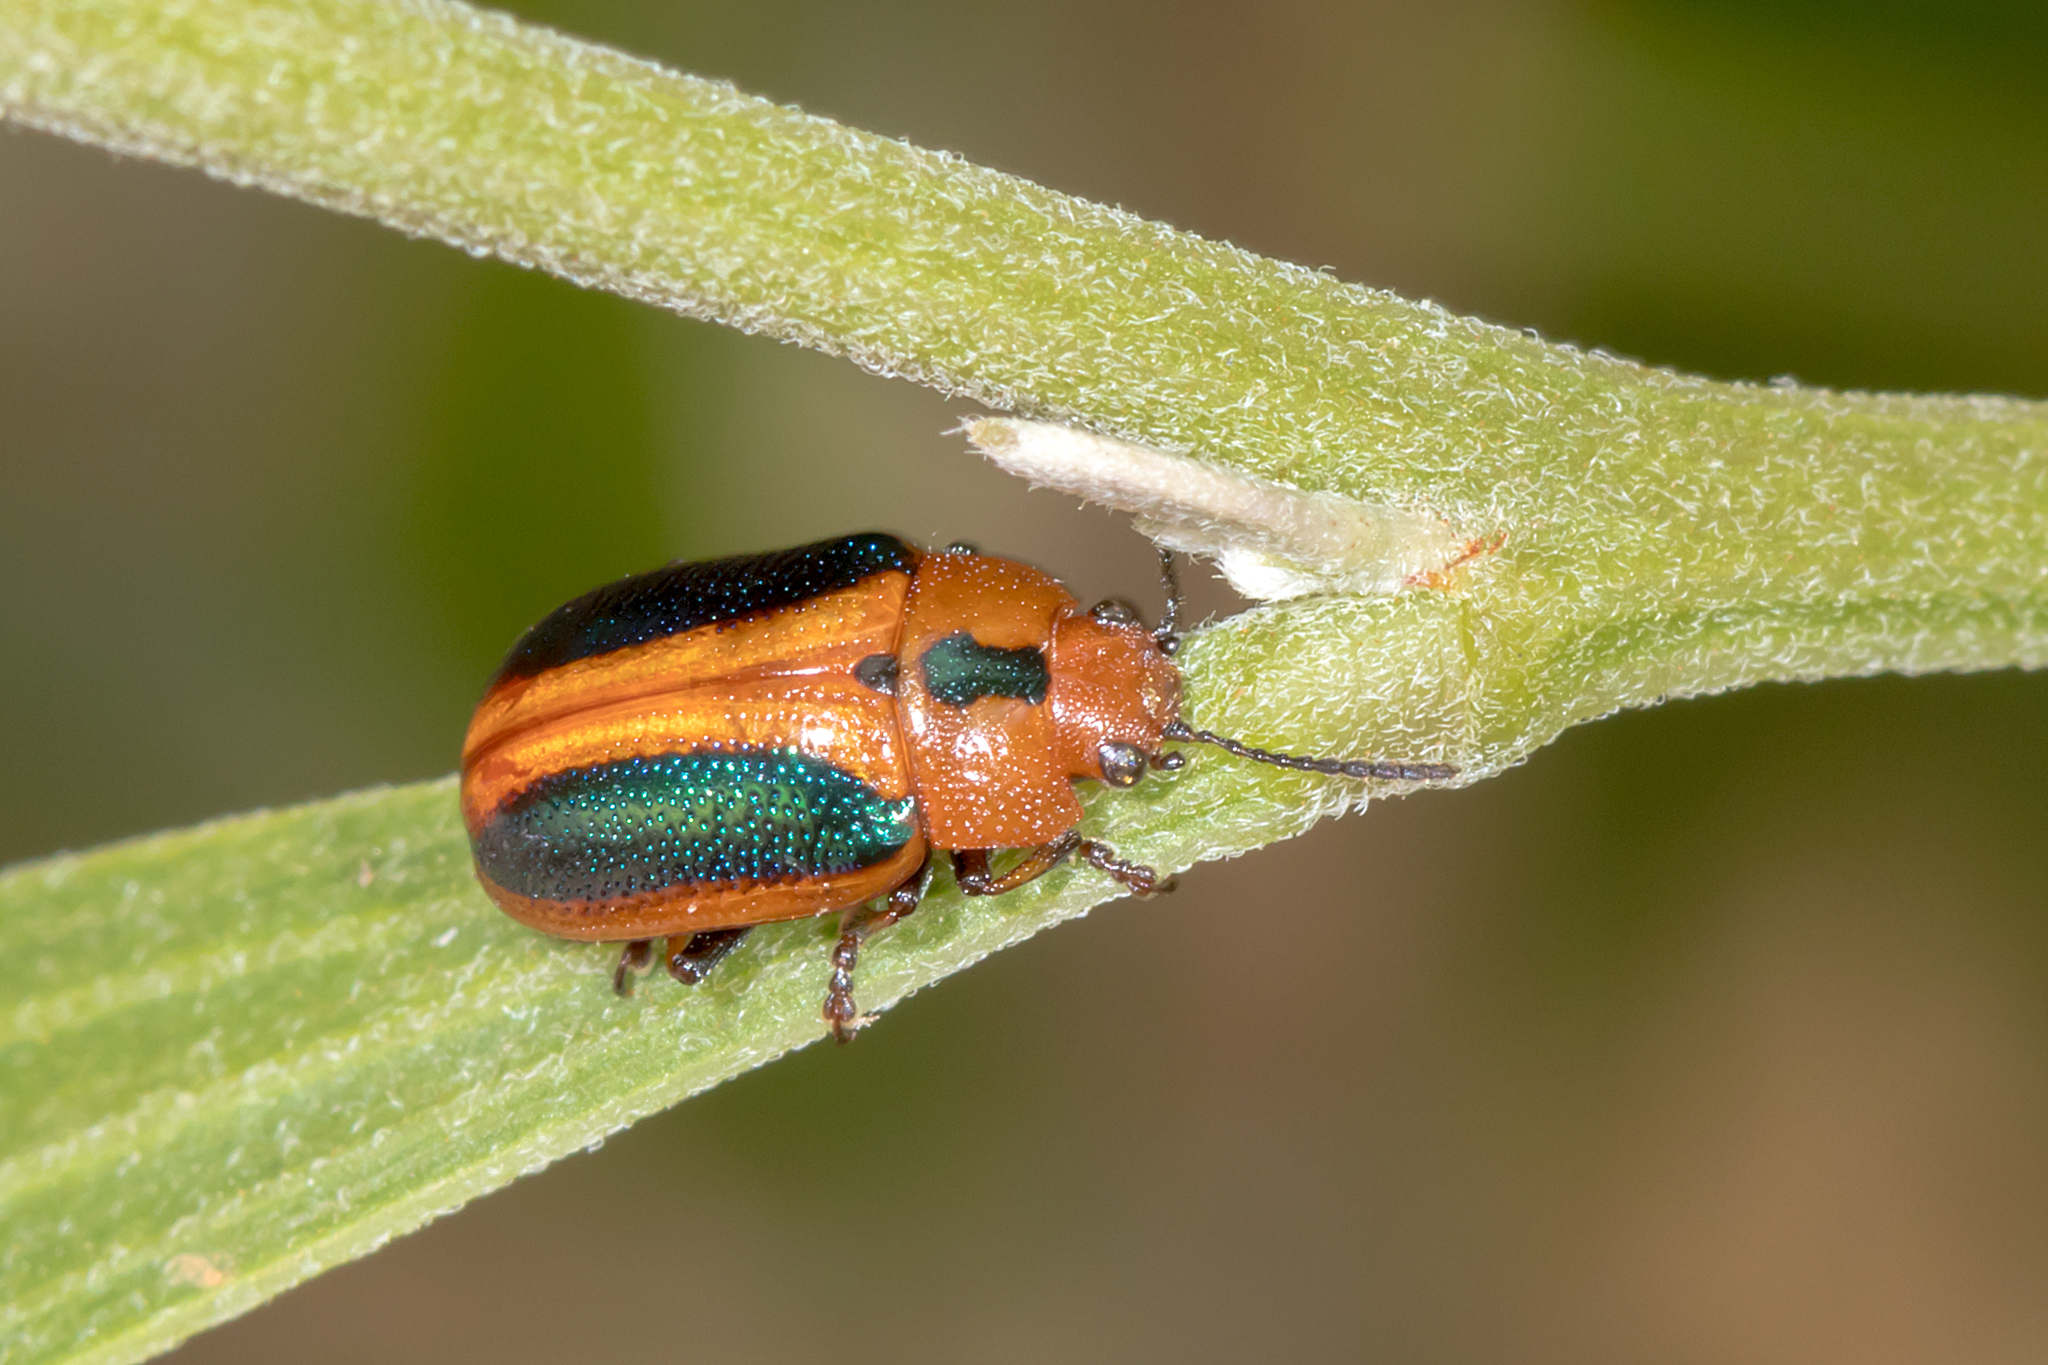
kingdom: Animalia
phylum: Arthropoda
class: Insecta
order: Coleoptera
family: Chrysomelidae
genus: Calomela
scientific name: Calomela
